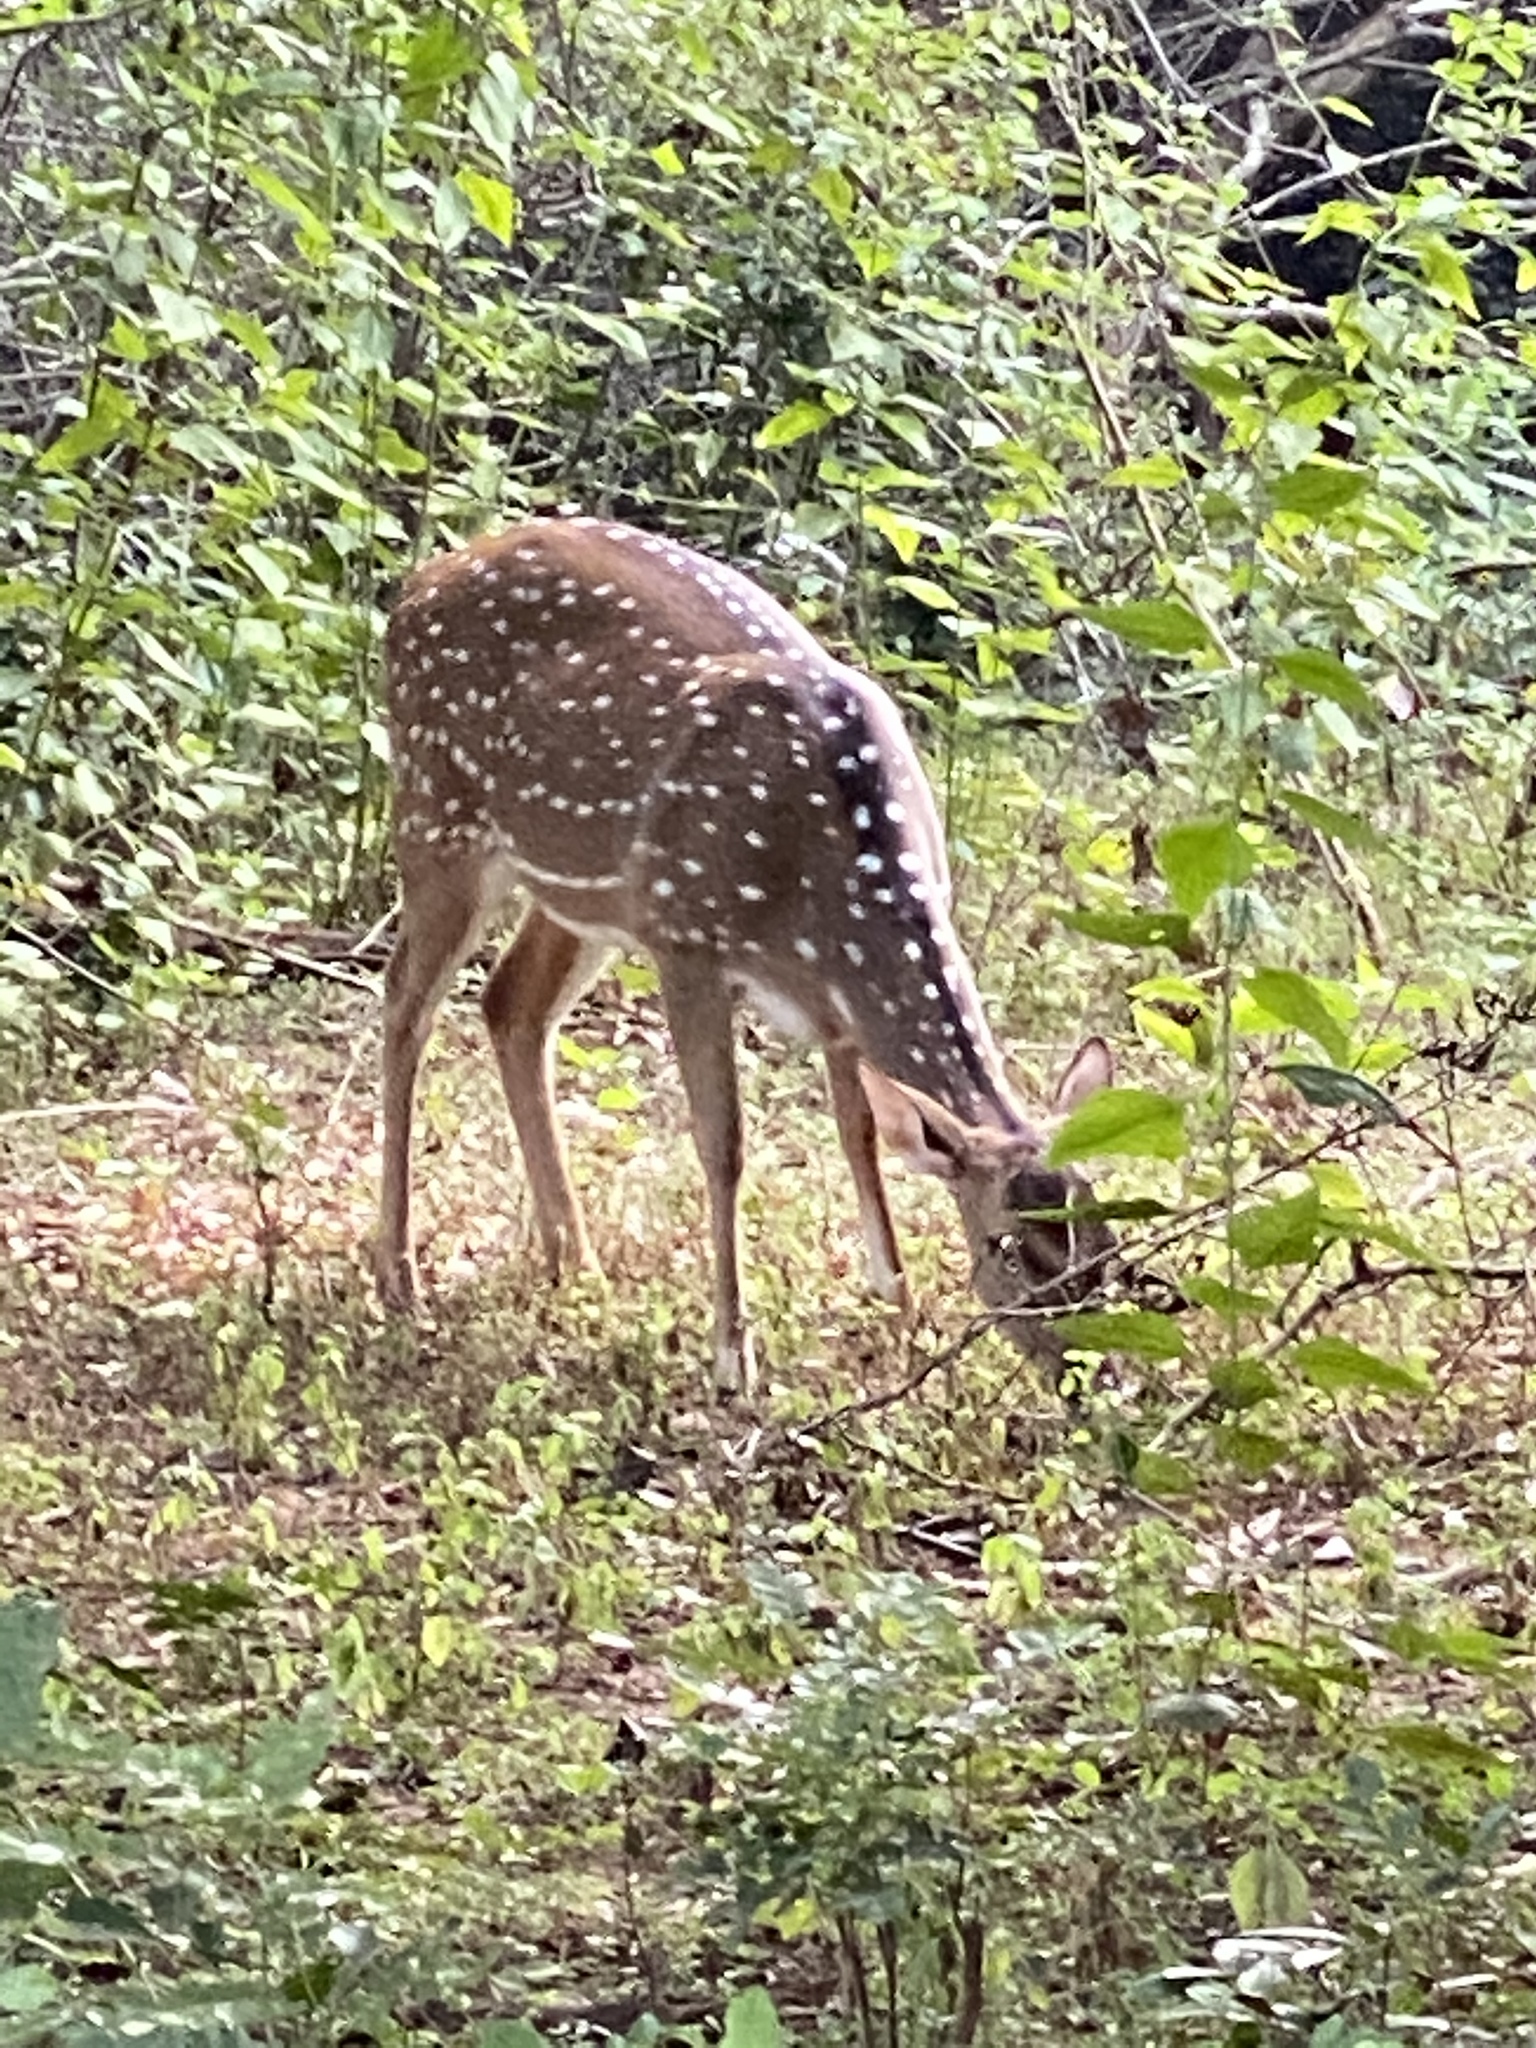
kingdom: Animalia
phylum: Chordata
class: Mammalia
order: Artiodactyla
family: Cervidae
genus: Axis
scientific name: Axis axis
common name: Chital
